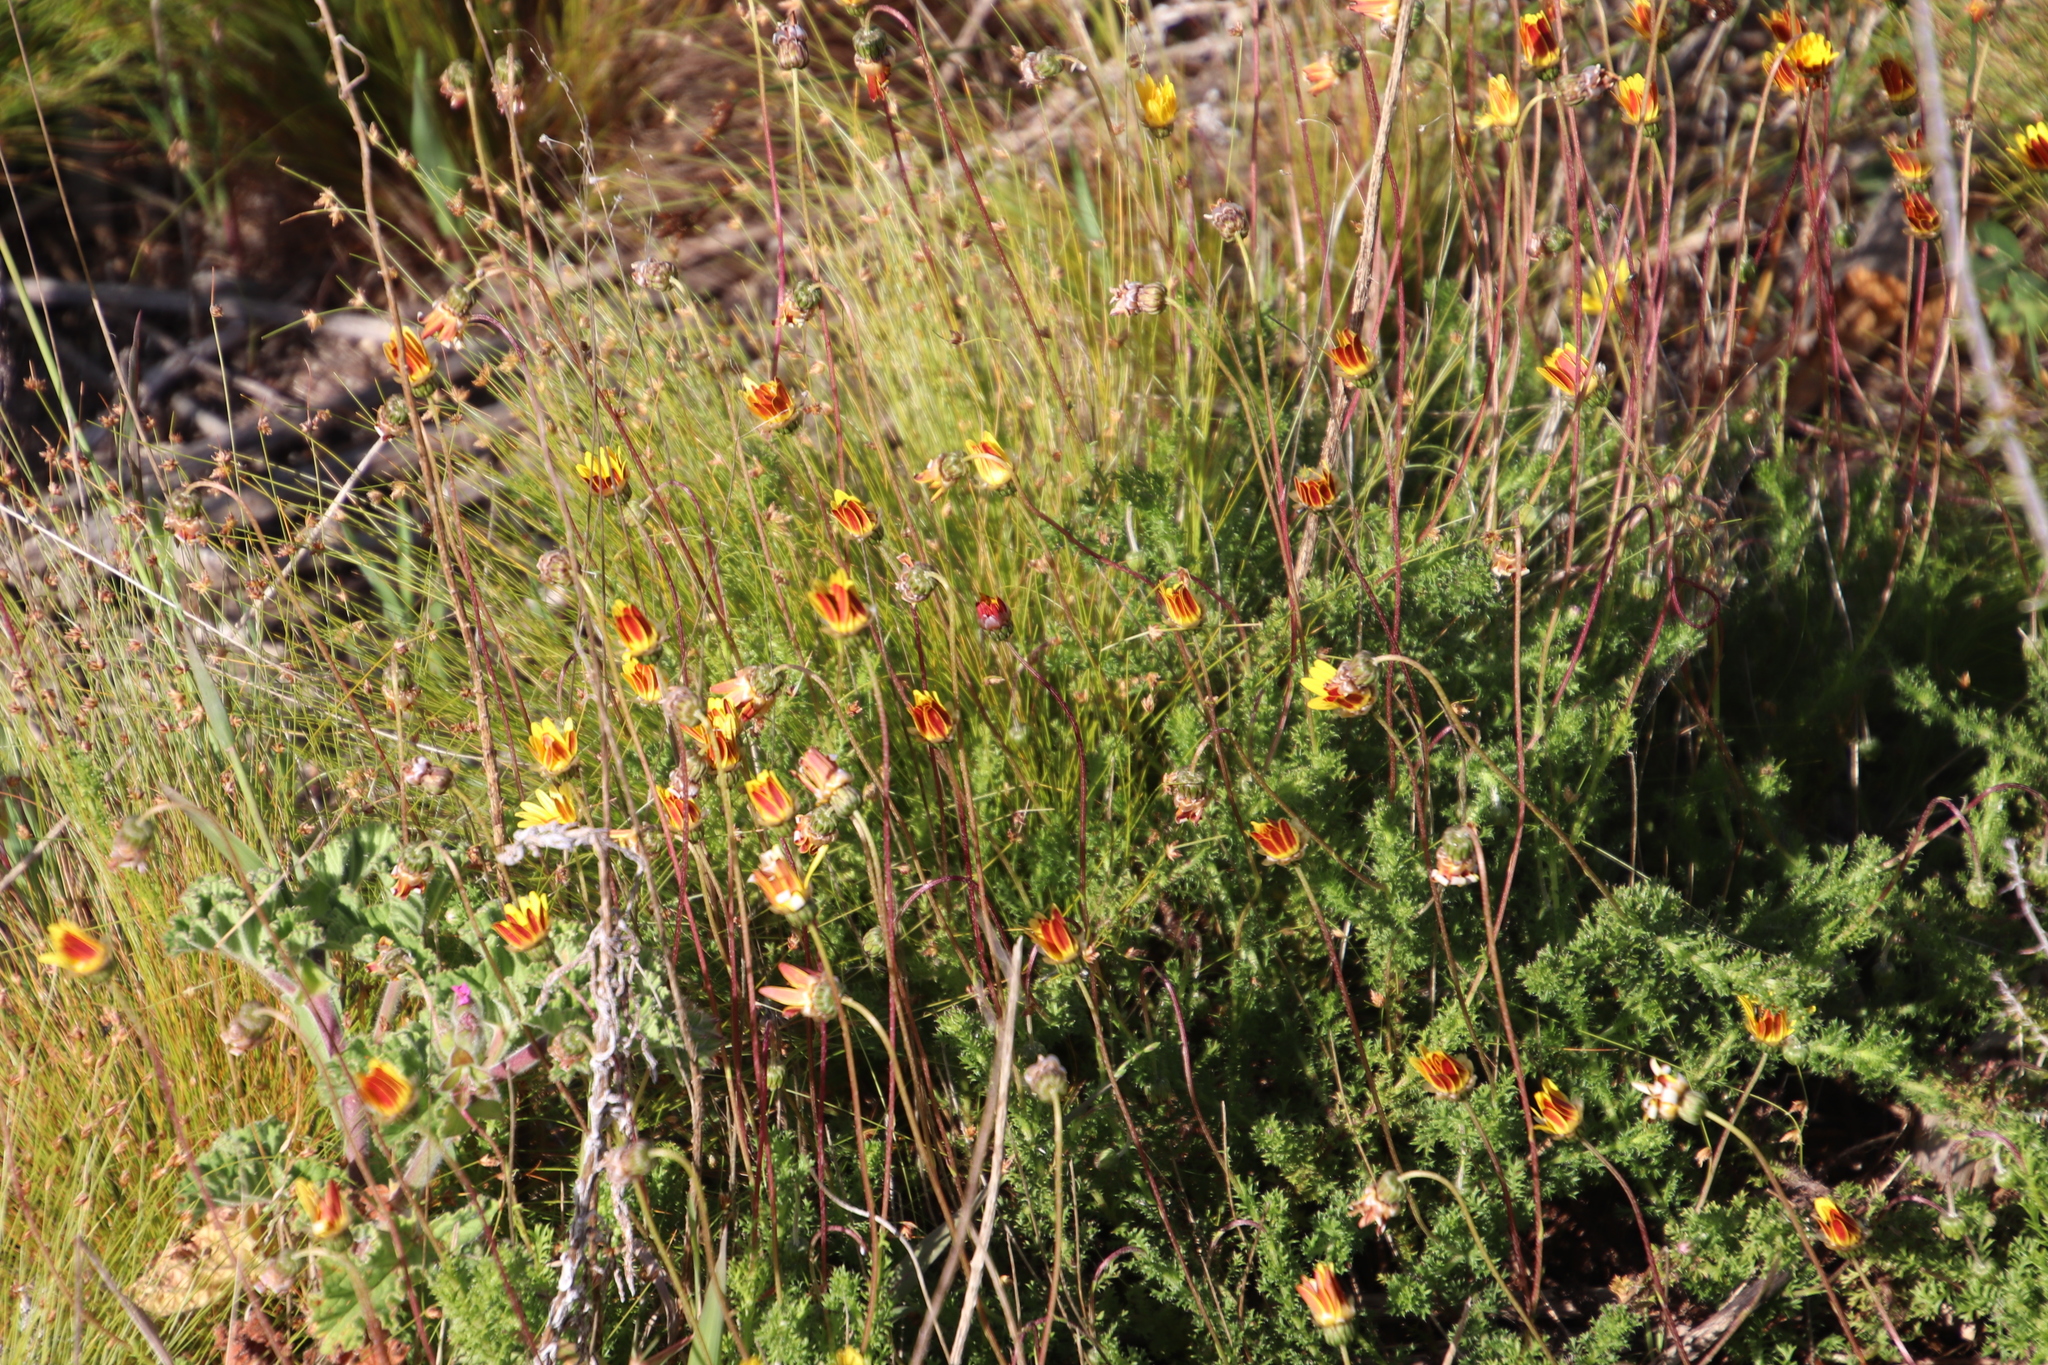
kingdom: Plantae
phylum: Tracheophyta
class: Magnoliopsida
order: Asterales
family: Asteraceae
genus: Ursinia
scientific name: Ursinia dentata
